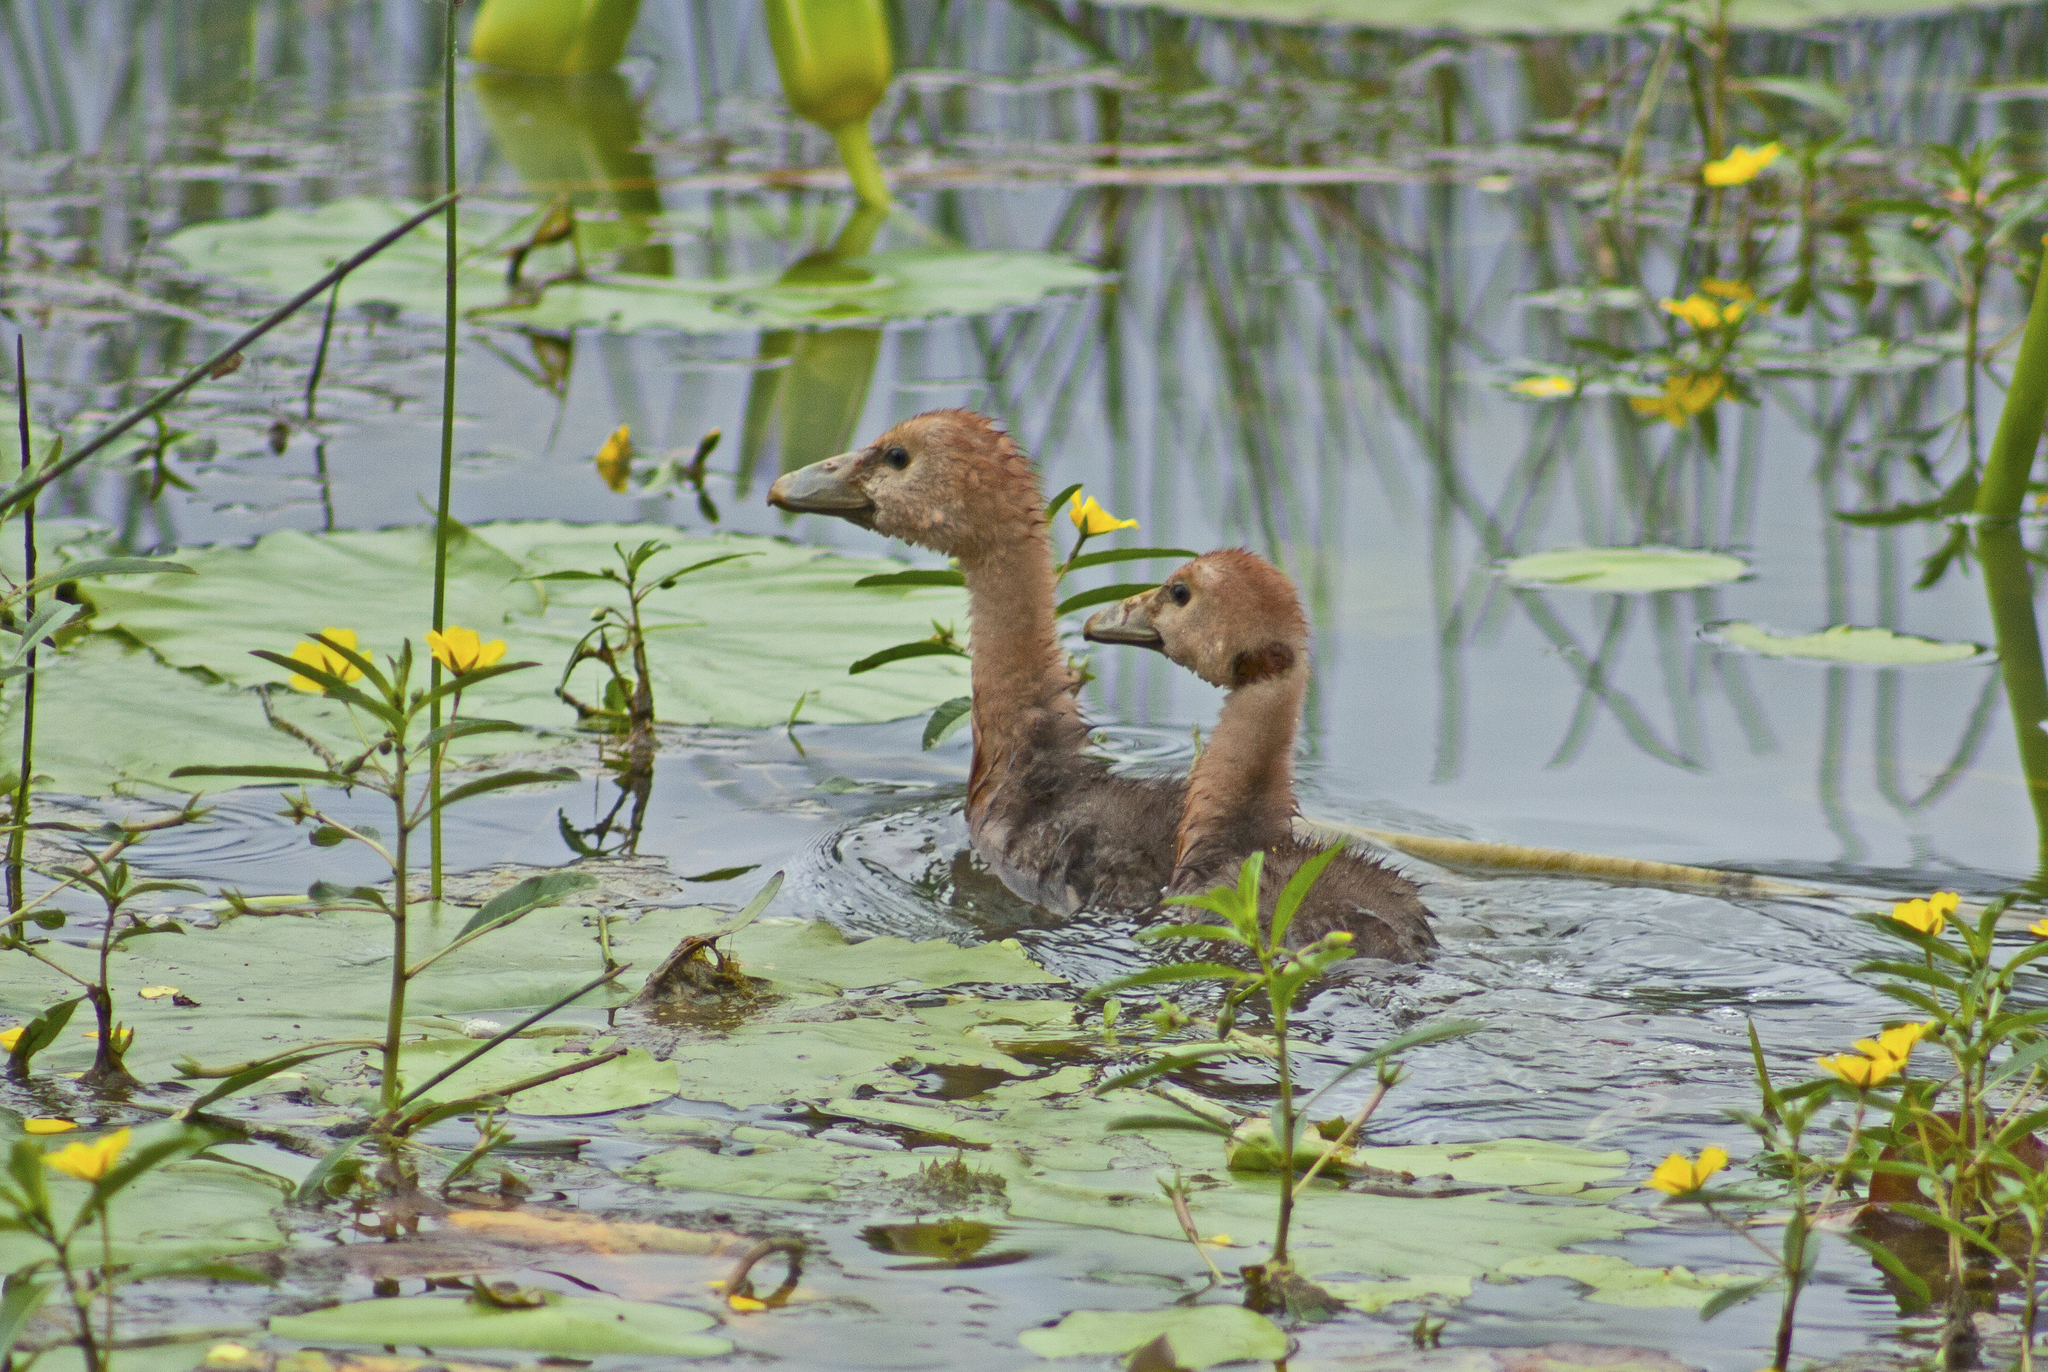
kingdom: Animalia
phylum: Chordata
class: Aves
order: Anseriformes
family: Anseranatidae
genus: Anseranas
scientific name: Anseranas semipalmata
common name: Magpie goose
